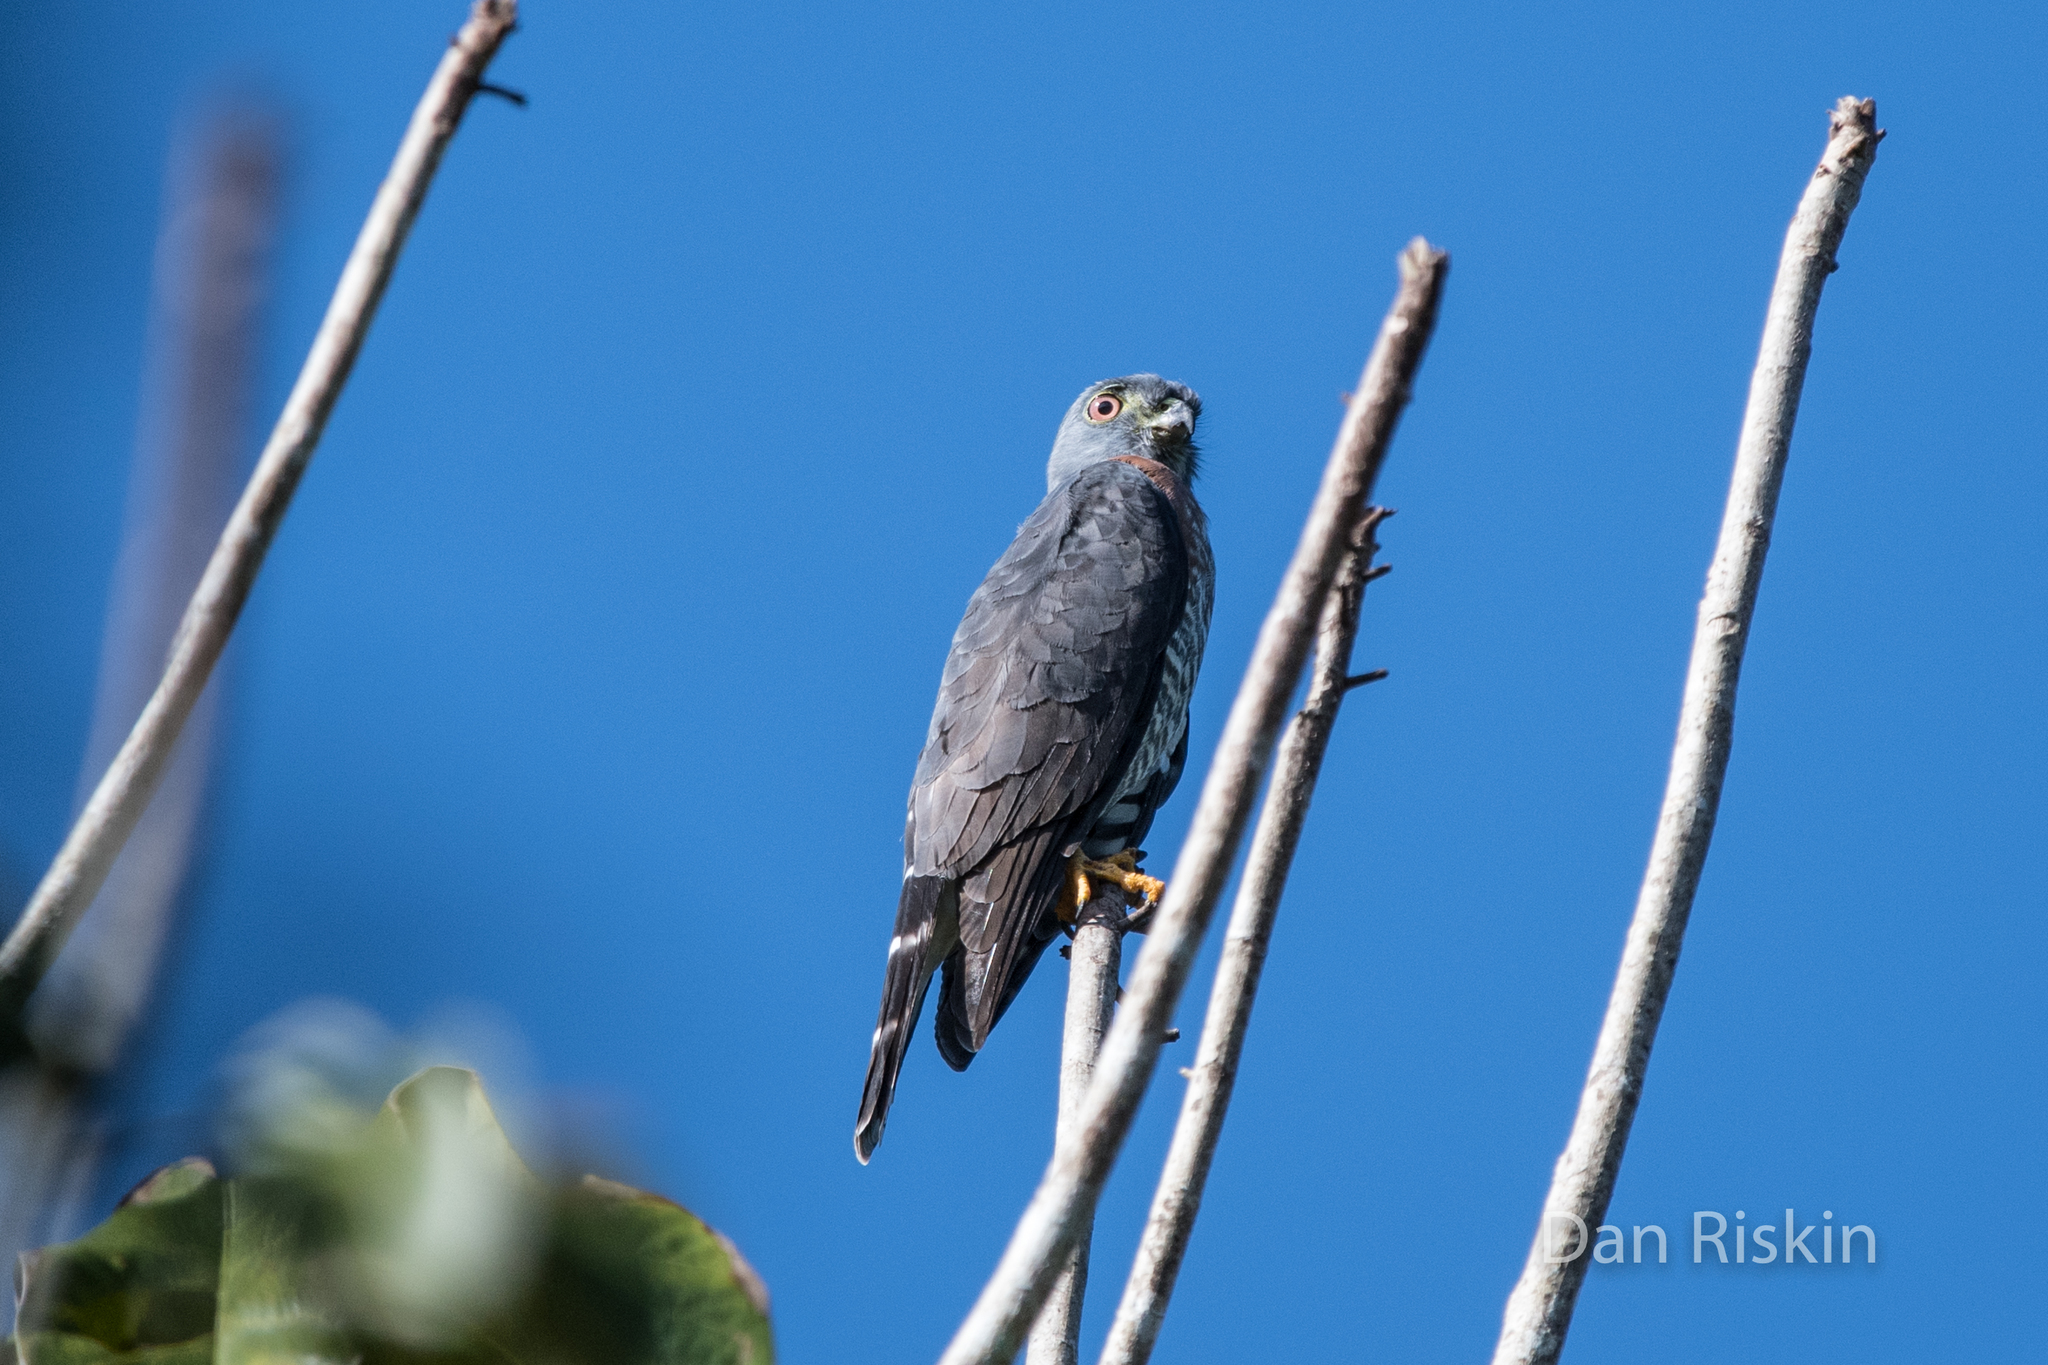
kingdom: Animalia
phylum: Chordata
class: Aves
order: Accipitriformes
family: Accipitridae
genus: Harpagus
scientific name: Harpagus bidentatus
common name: Double-toothed kite
